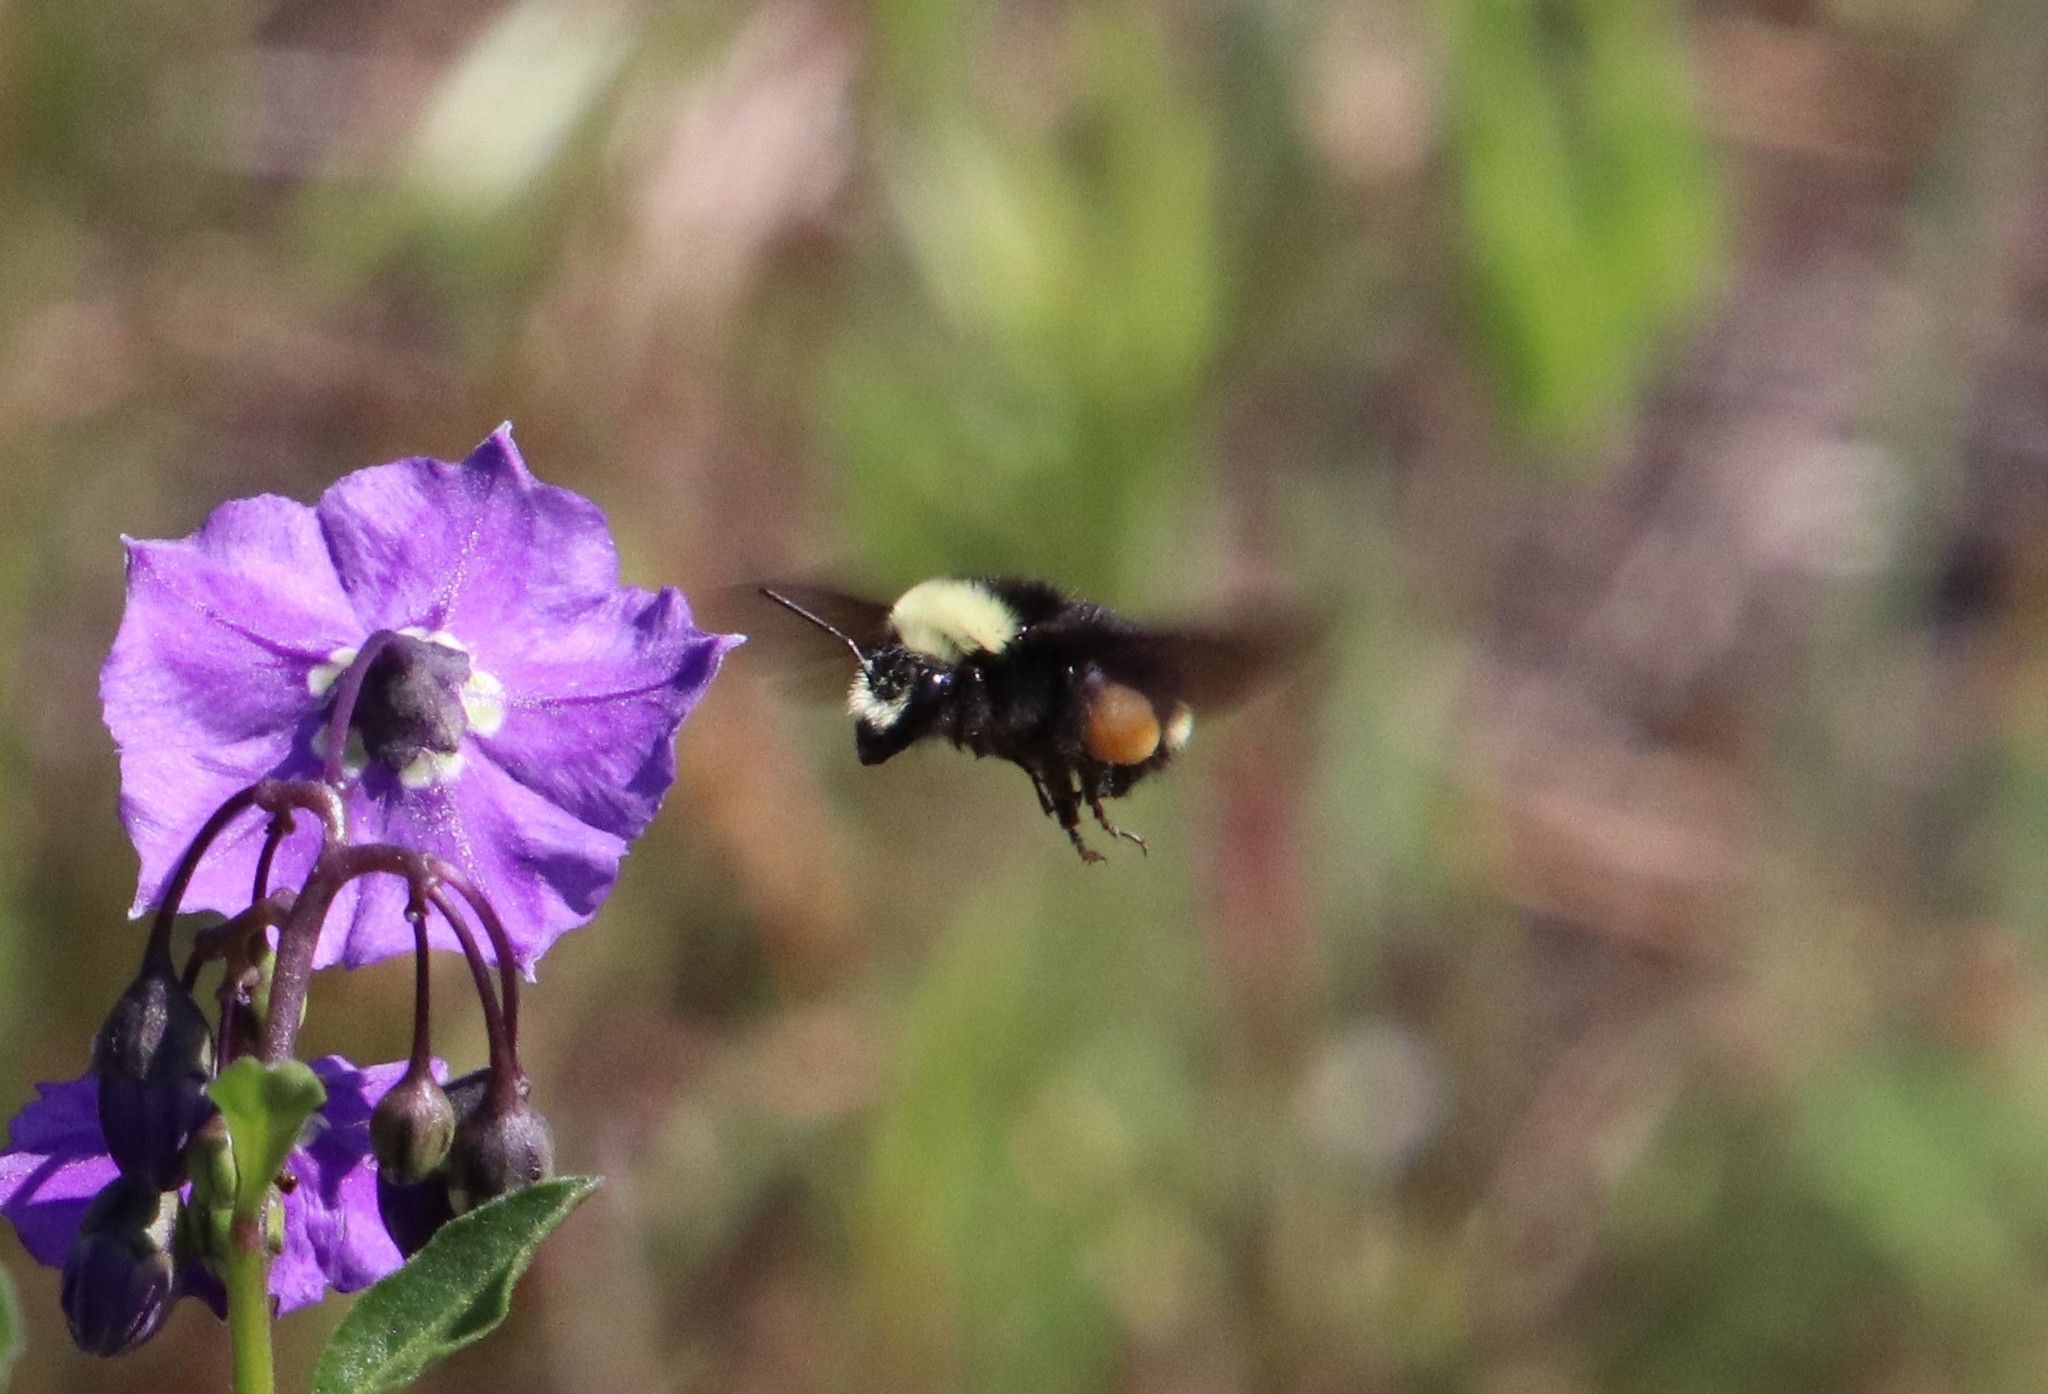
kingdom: Animalia
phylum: Arthropoda
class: Insecta
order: Hymenoptera
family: Apidae
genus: Bombus
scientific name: Bombus vosnesenskii
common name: Vosnesensky bumble bee
